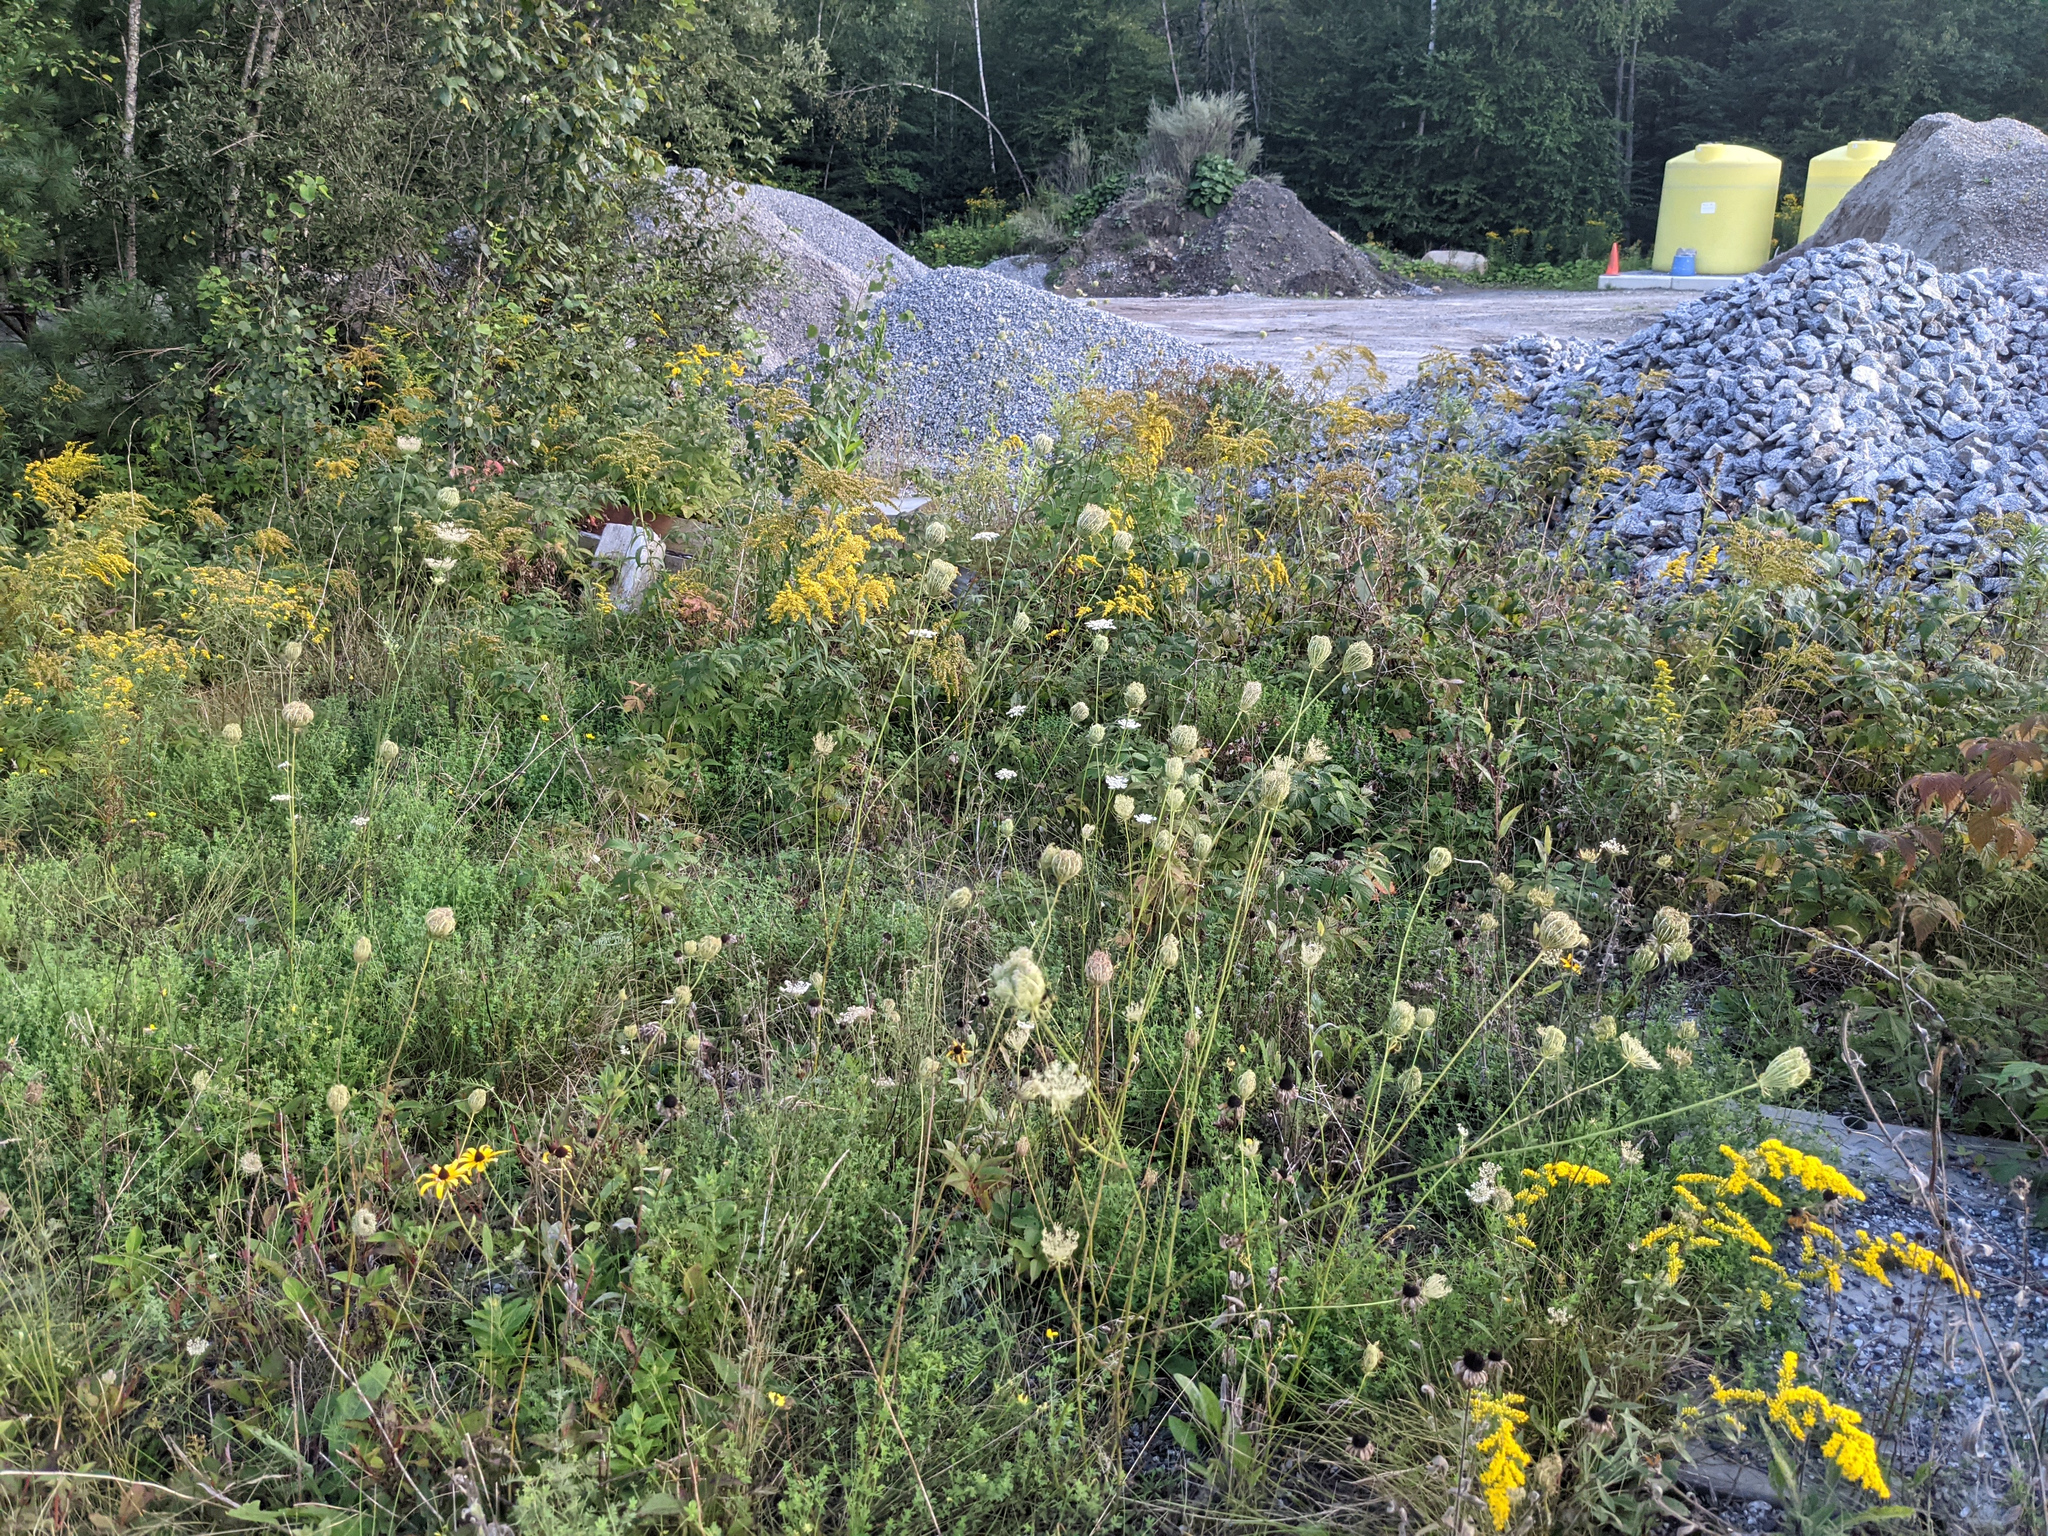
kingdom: Plantae
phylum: Tracheophyta
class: Magnoliopsida
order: Apiales
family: Apiaceae
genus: Daucus
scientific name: Daucus carota
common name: Wild carrot
